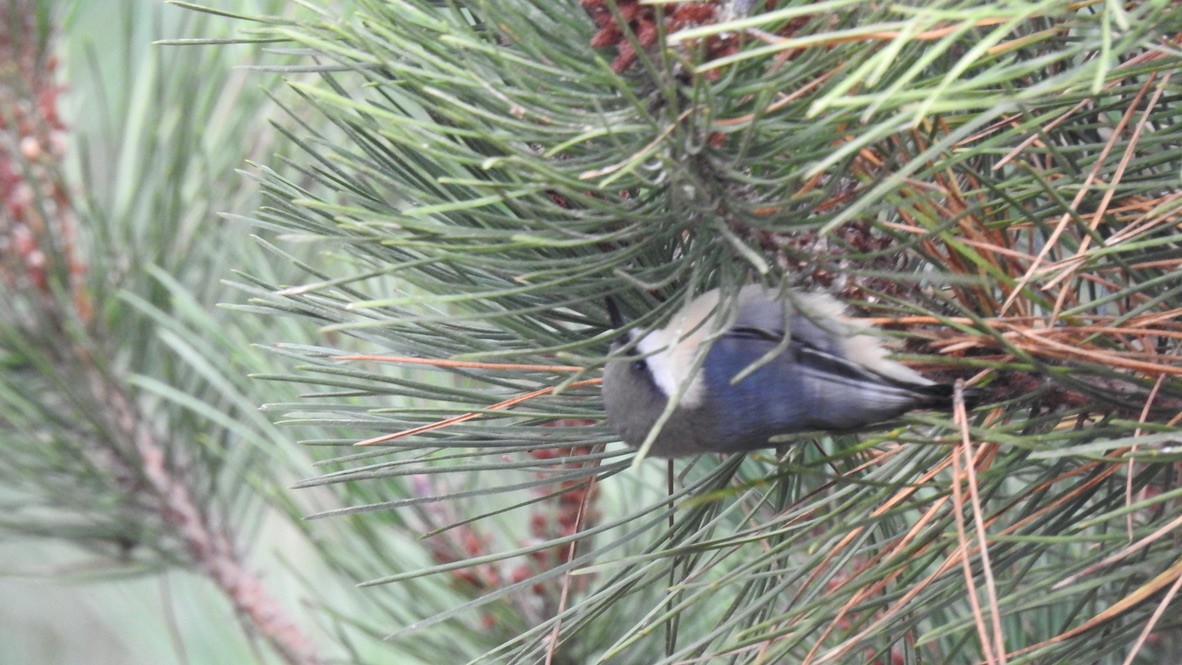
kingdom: Animalia
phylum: Chordata
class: Aves
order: Passeriformes
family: Sittidae
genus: Sitta
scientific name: Sitta pygmaea
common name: Pygmy nuthatch
